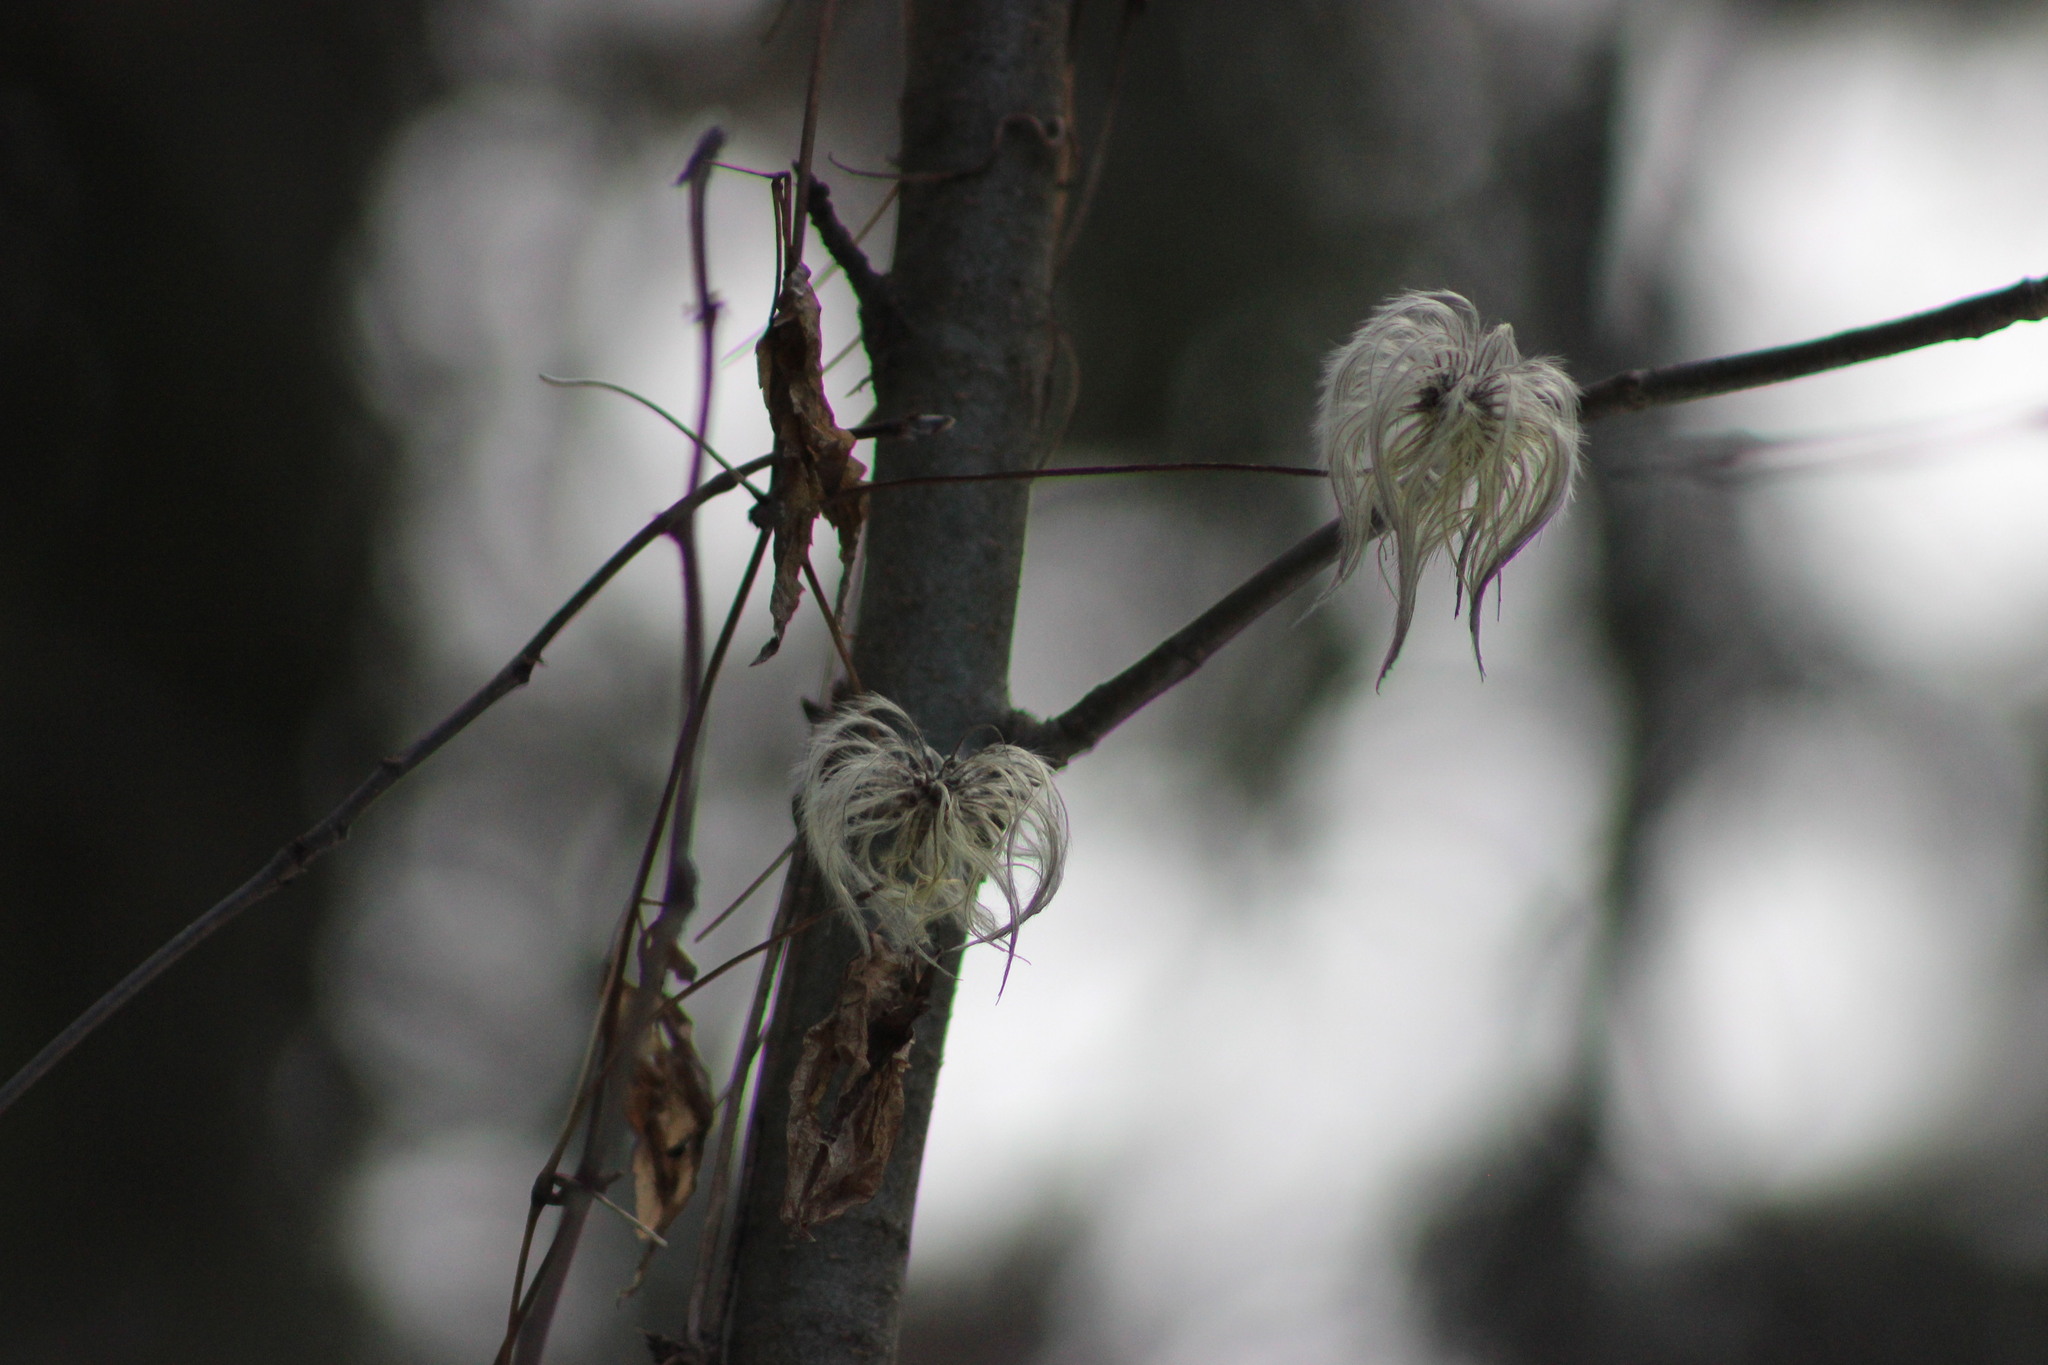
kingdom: Plantae
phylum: Tracheophyta
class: Magnoliopsida
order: Ranunculales
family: Ranunculaceae
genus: Clematis
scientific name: Clematis sibirica
